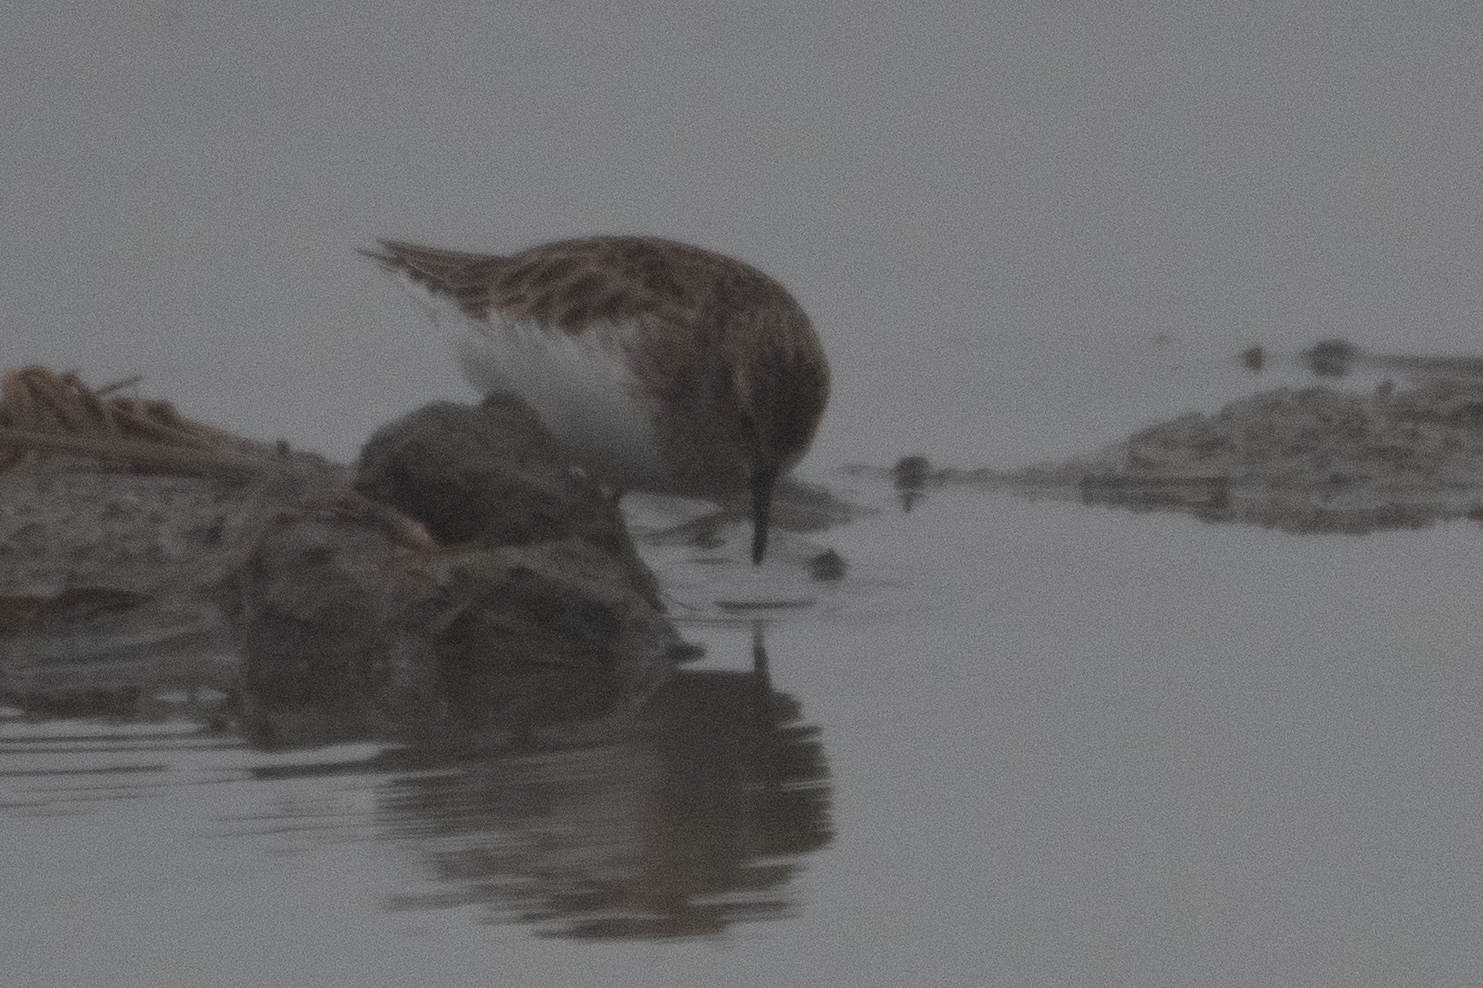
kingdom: Animalia
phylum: Chordata
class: Aves
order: Charadriiformes
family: Scolopacidae
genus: Calidris
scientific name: Calidris minutilla
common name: Least sandpiper
